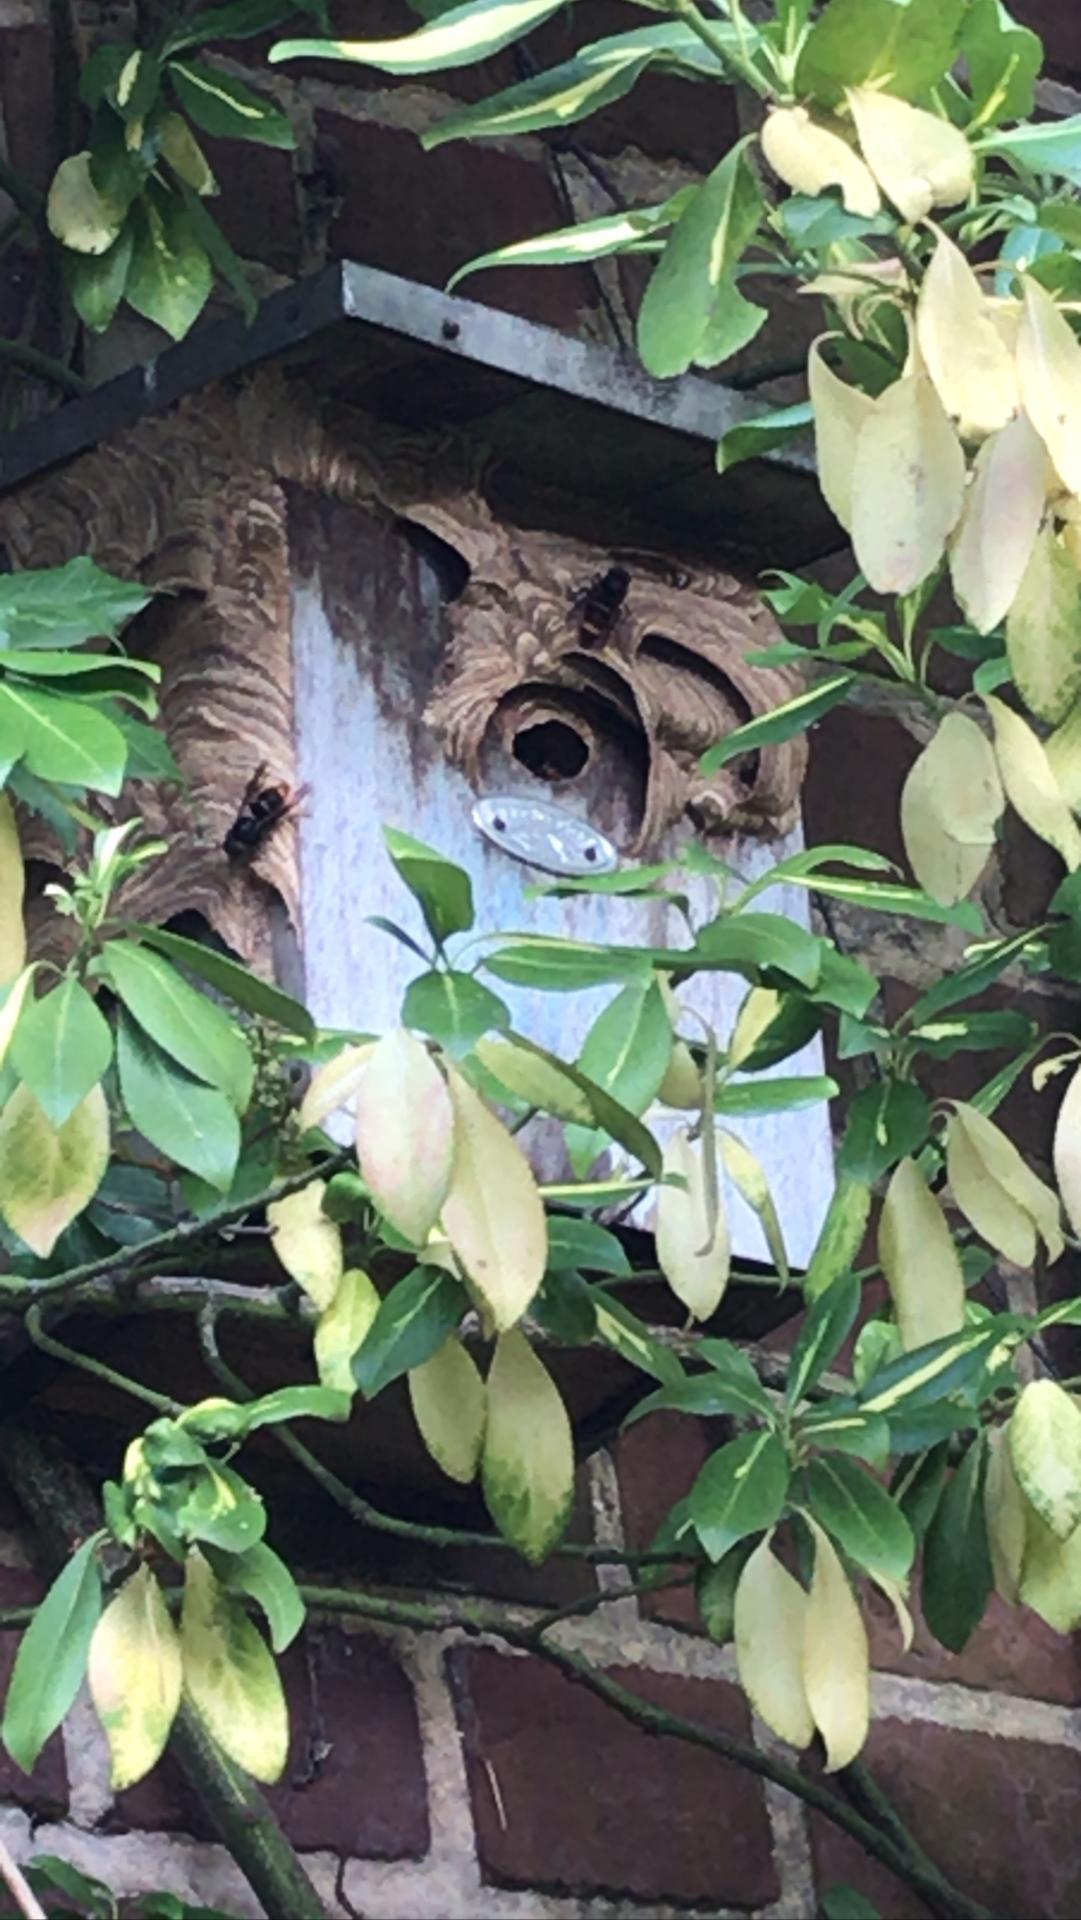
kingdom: Animalia
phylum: Arthropoda
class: Insecta
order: Hymenoptera
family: Vespidae
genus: Vespa
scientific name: Vespa velutina
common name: Asian hornet
